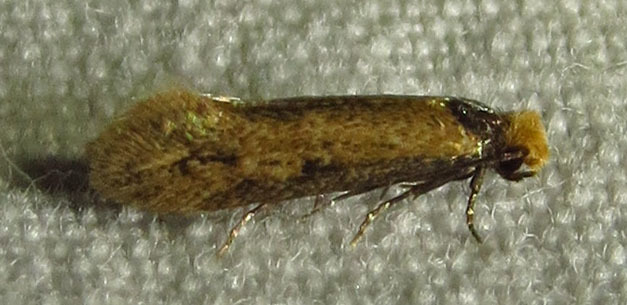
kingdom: Animalia
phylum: Arthropoda
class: Insecta
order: Lepidoptera
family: Meessiidae
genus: Homostinea
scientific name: Homostinea curviliniella
